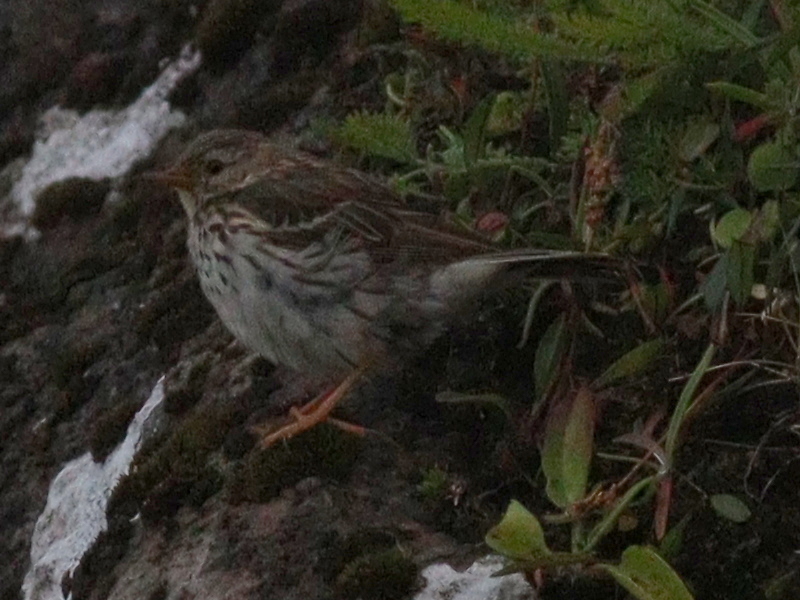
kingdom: Animalia
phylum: Chordata
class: Aves
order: Passeriformes
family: Motacillidae
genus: Anthus
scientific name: Anthus pratensis
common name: Meadow pipit
